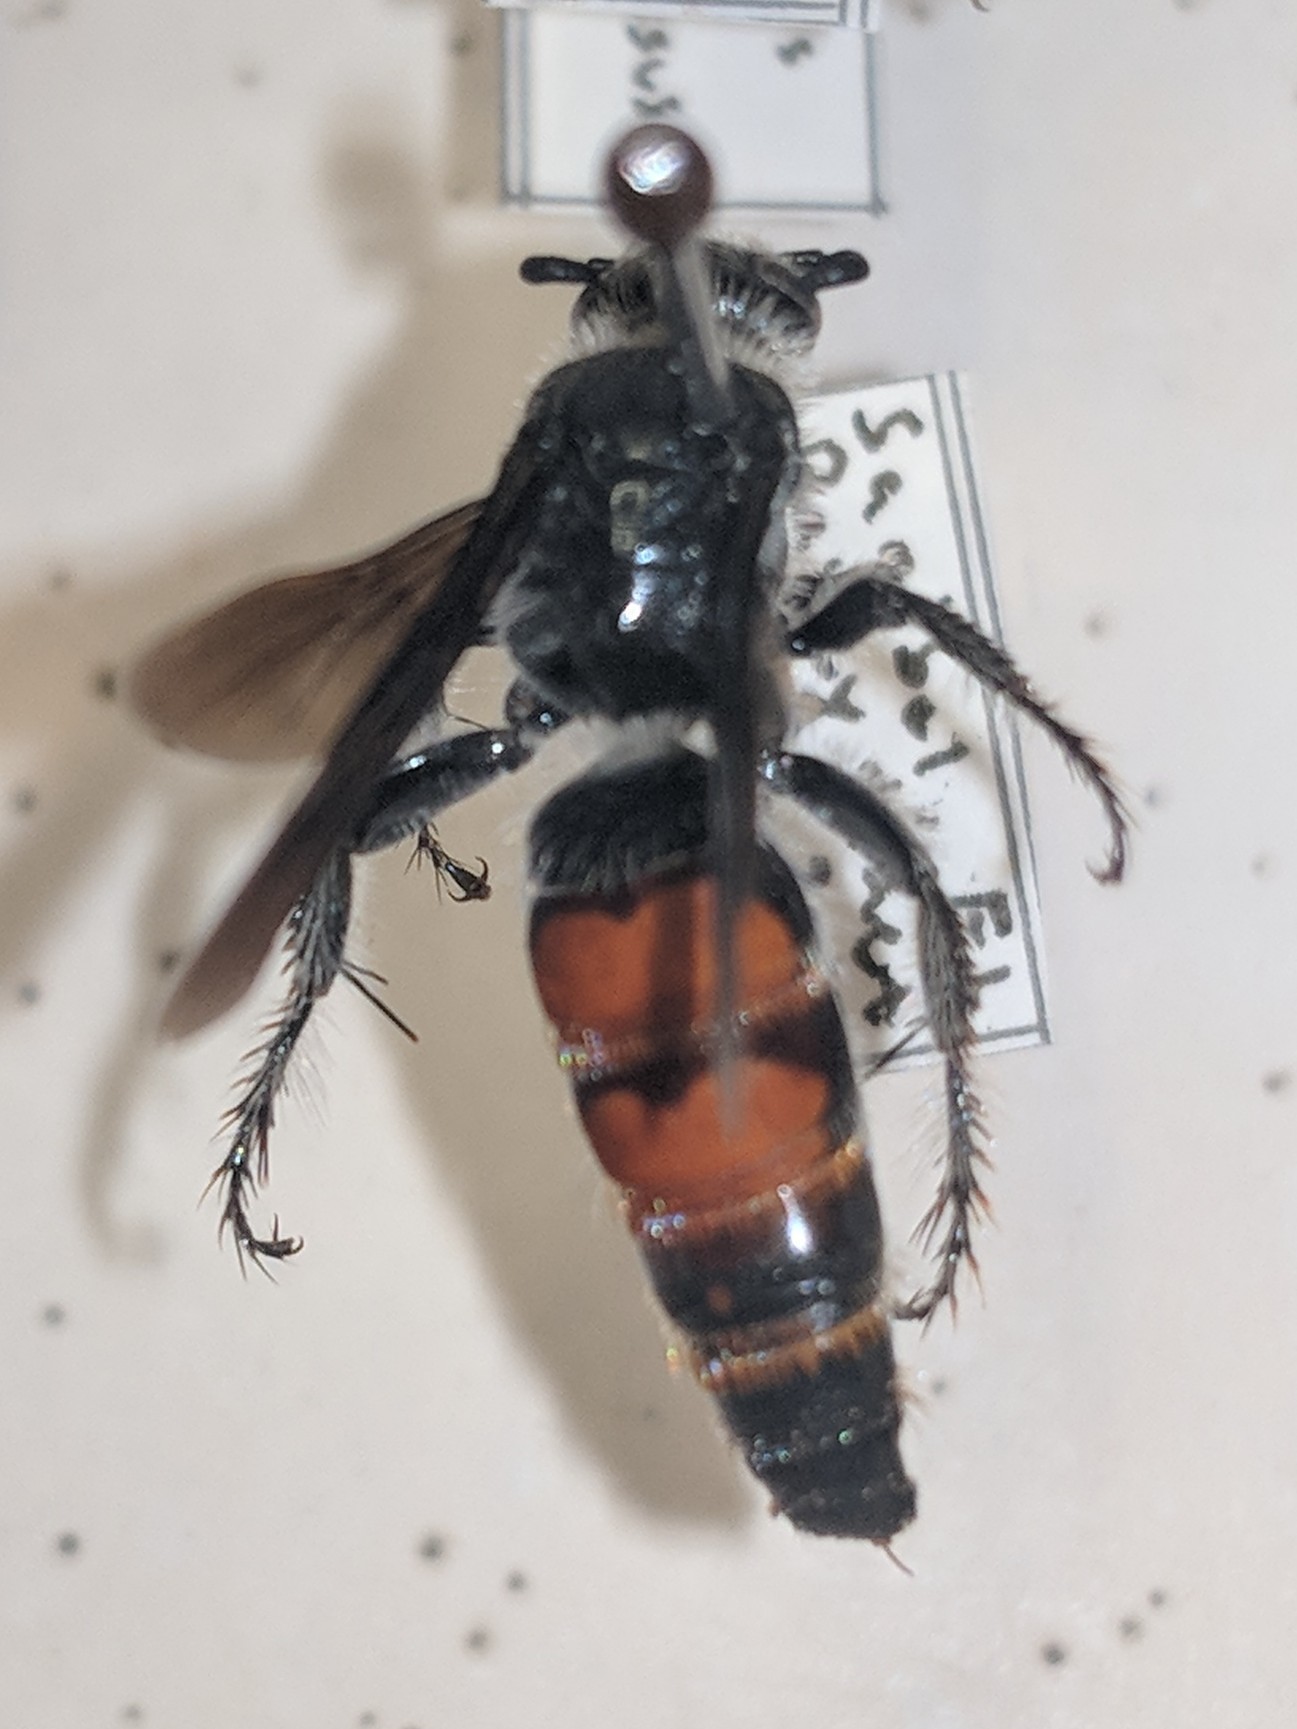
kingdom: Animalia
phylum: Arthropoda
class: Insecta
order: Hymenoptera
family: Scoliidae
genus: Dielis
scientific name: Dielis dorsata
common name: Scoliid wasp
